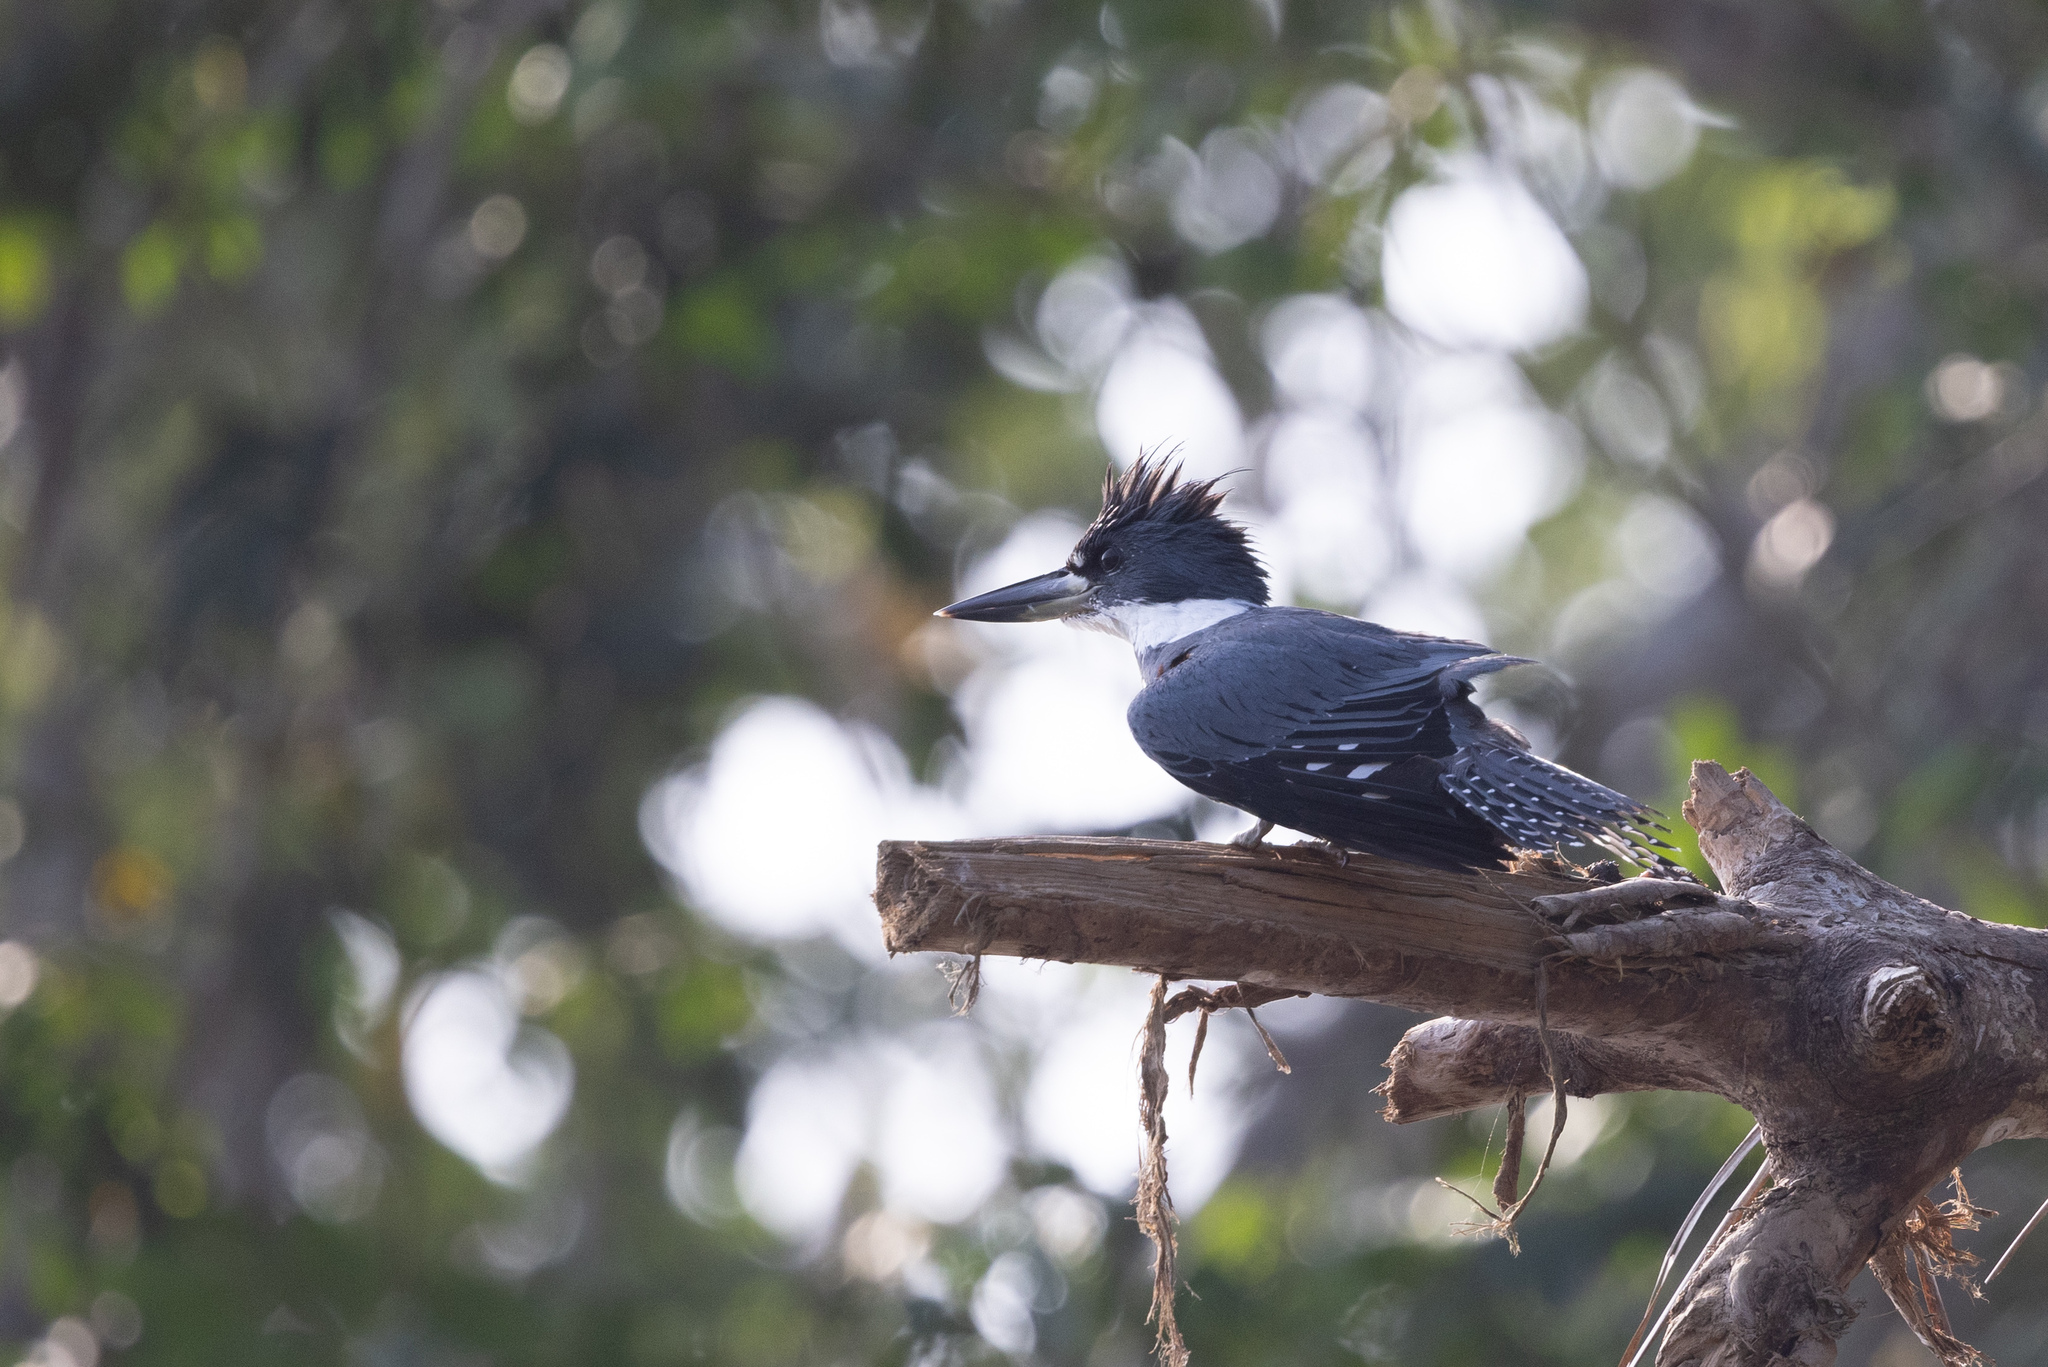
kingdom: Animalia
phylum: Chordata
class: Aves
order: Coraciiformes
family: Alcedinidae
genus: Megaceryle
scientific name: Megaceryle torquata
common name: Ringed kingfisher
